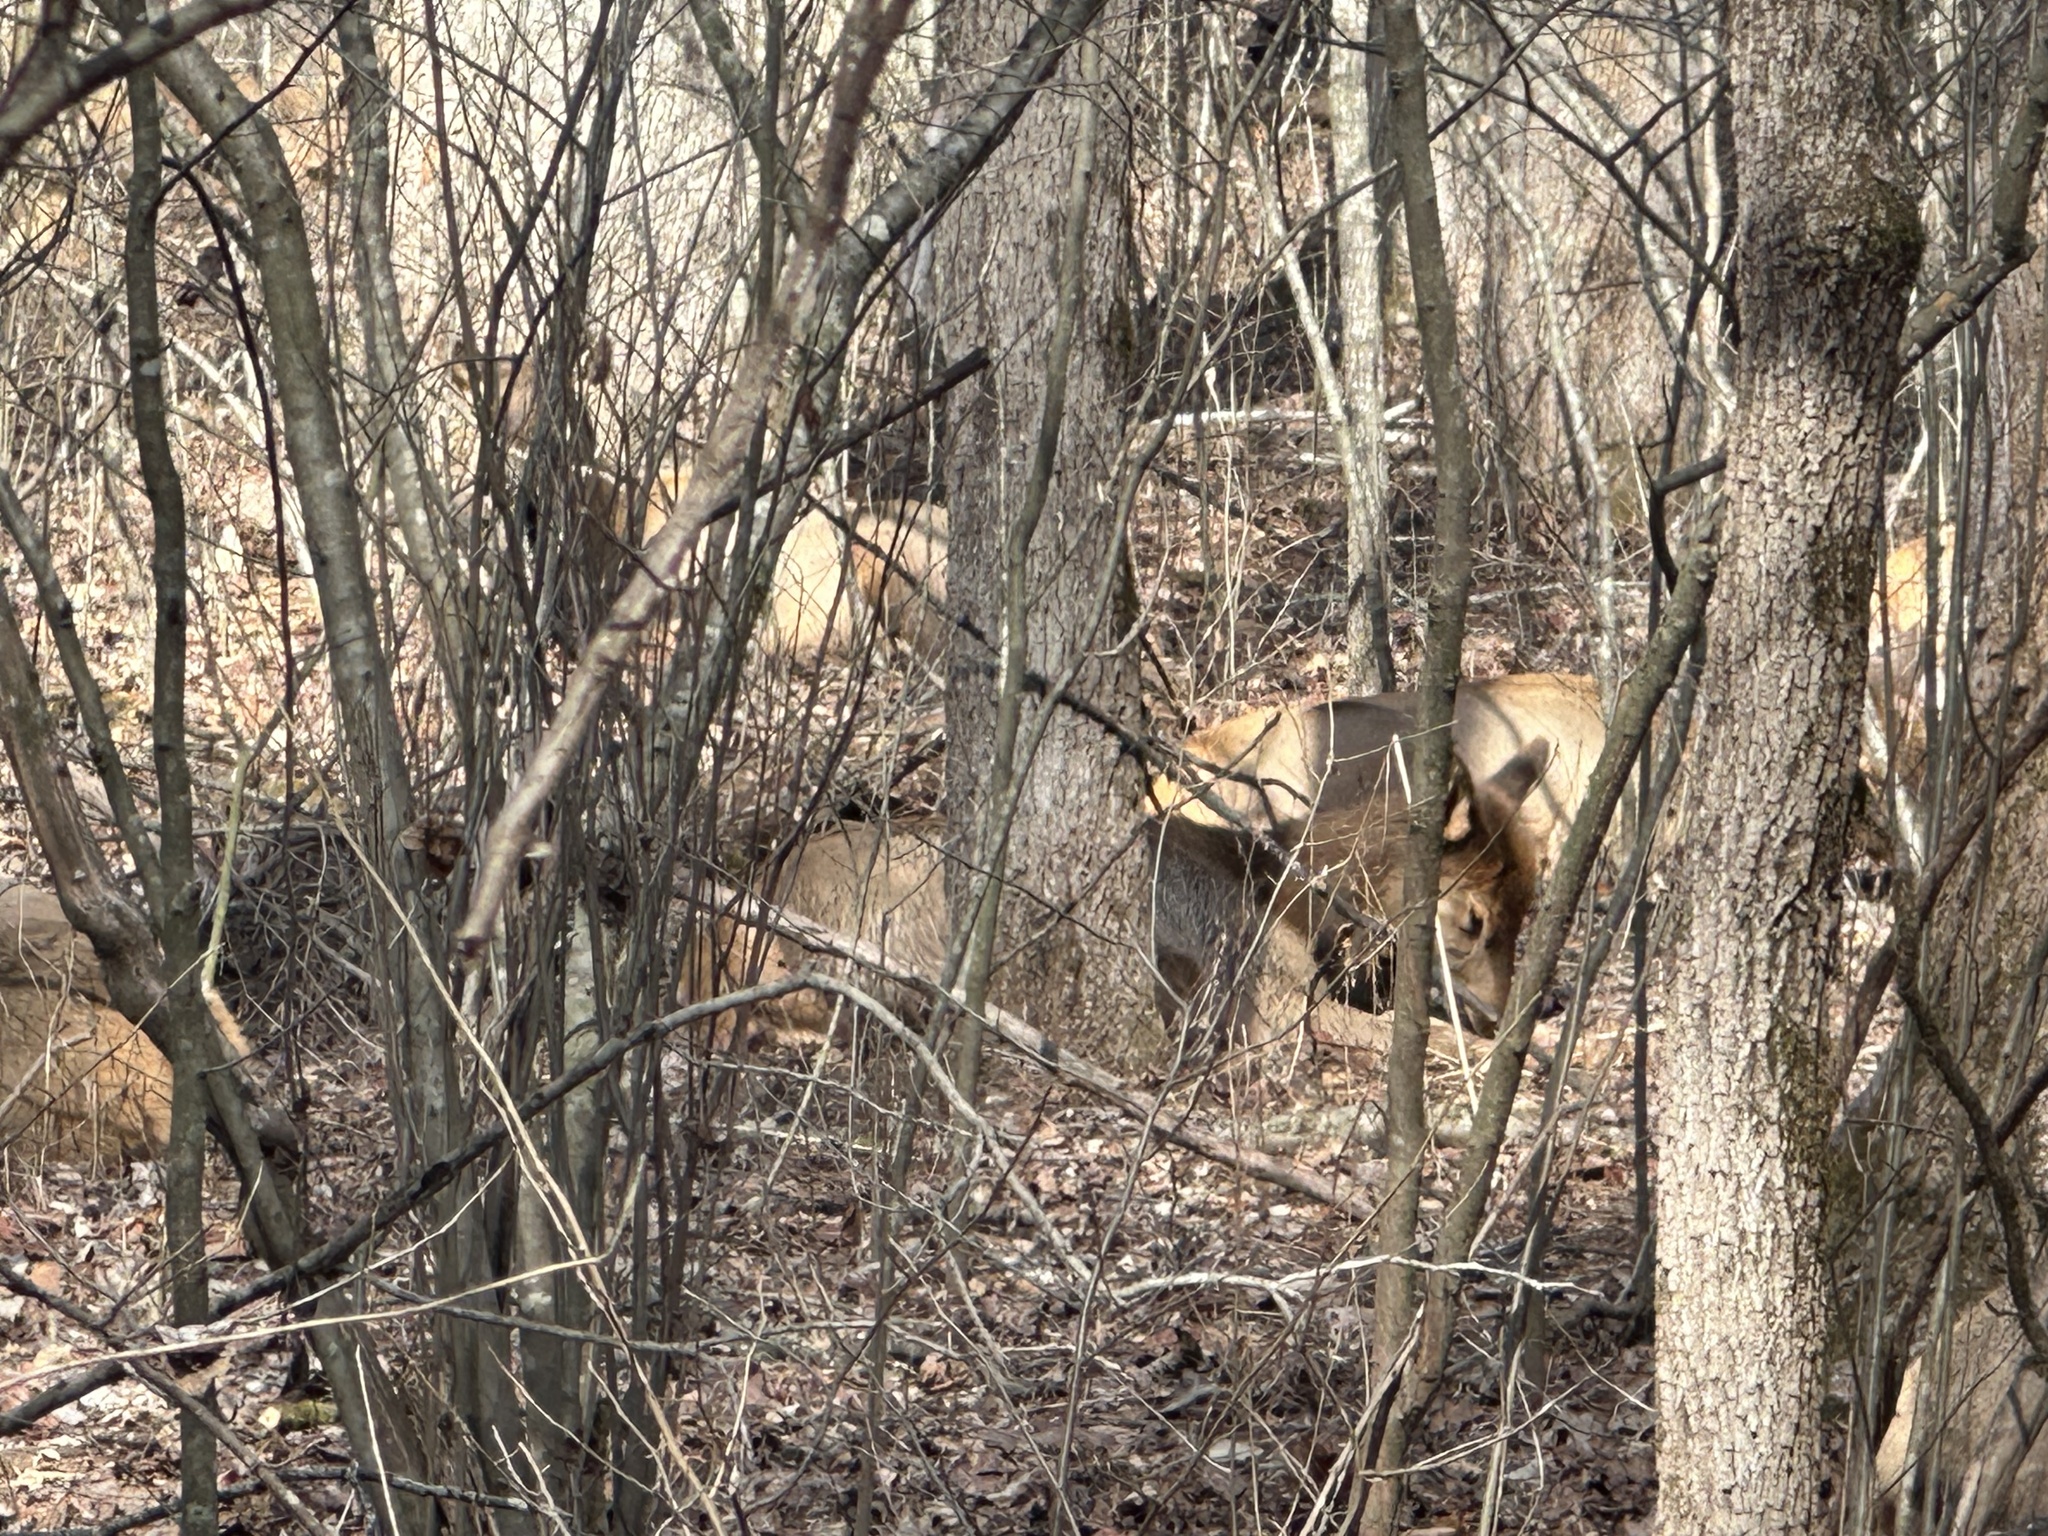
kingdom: Animalia
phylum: Chordata
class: Mammalia
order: Artiodactyla
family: Cervidae
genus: Cervus
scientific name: Cervus elaphus
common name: Red deer
